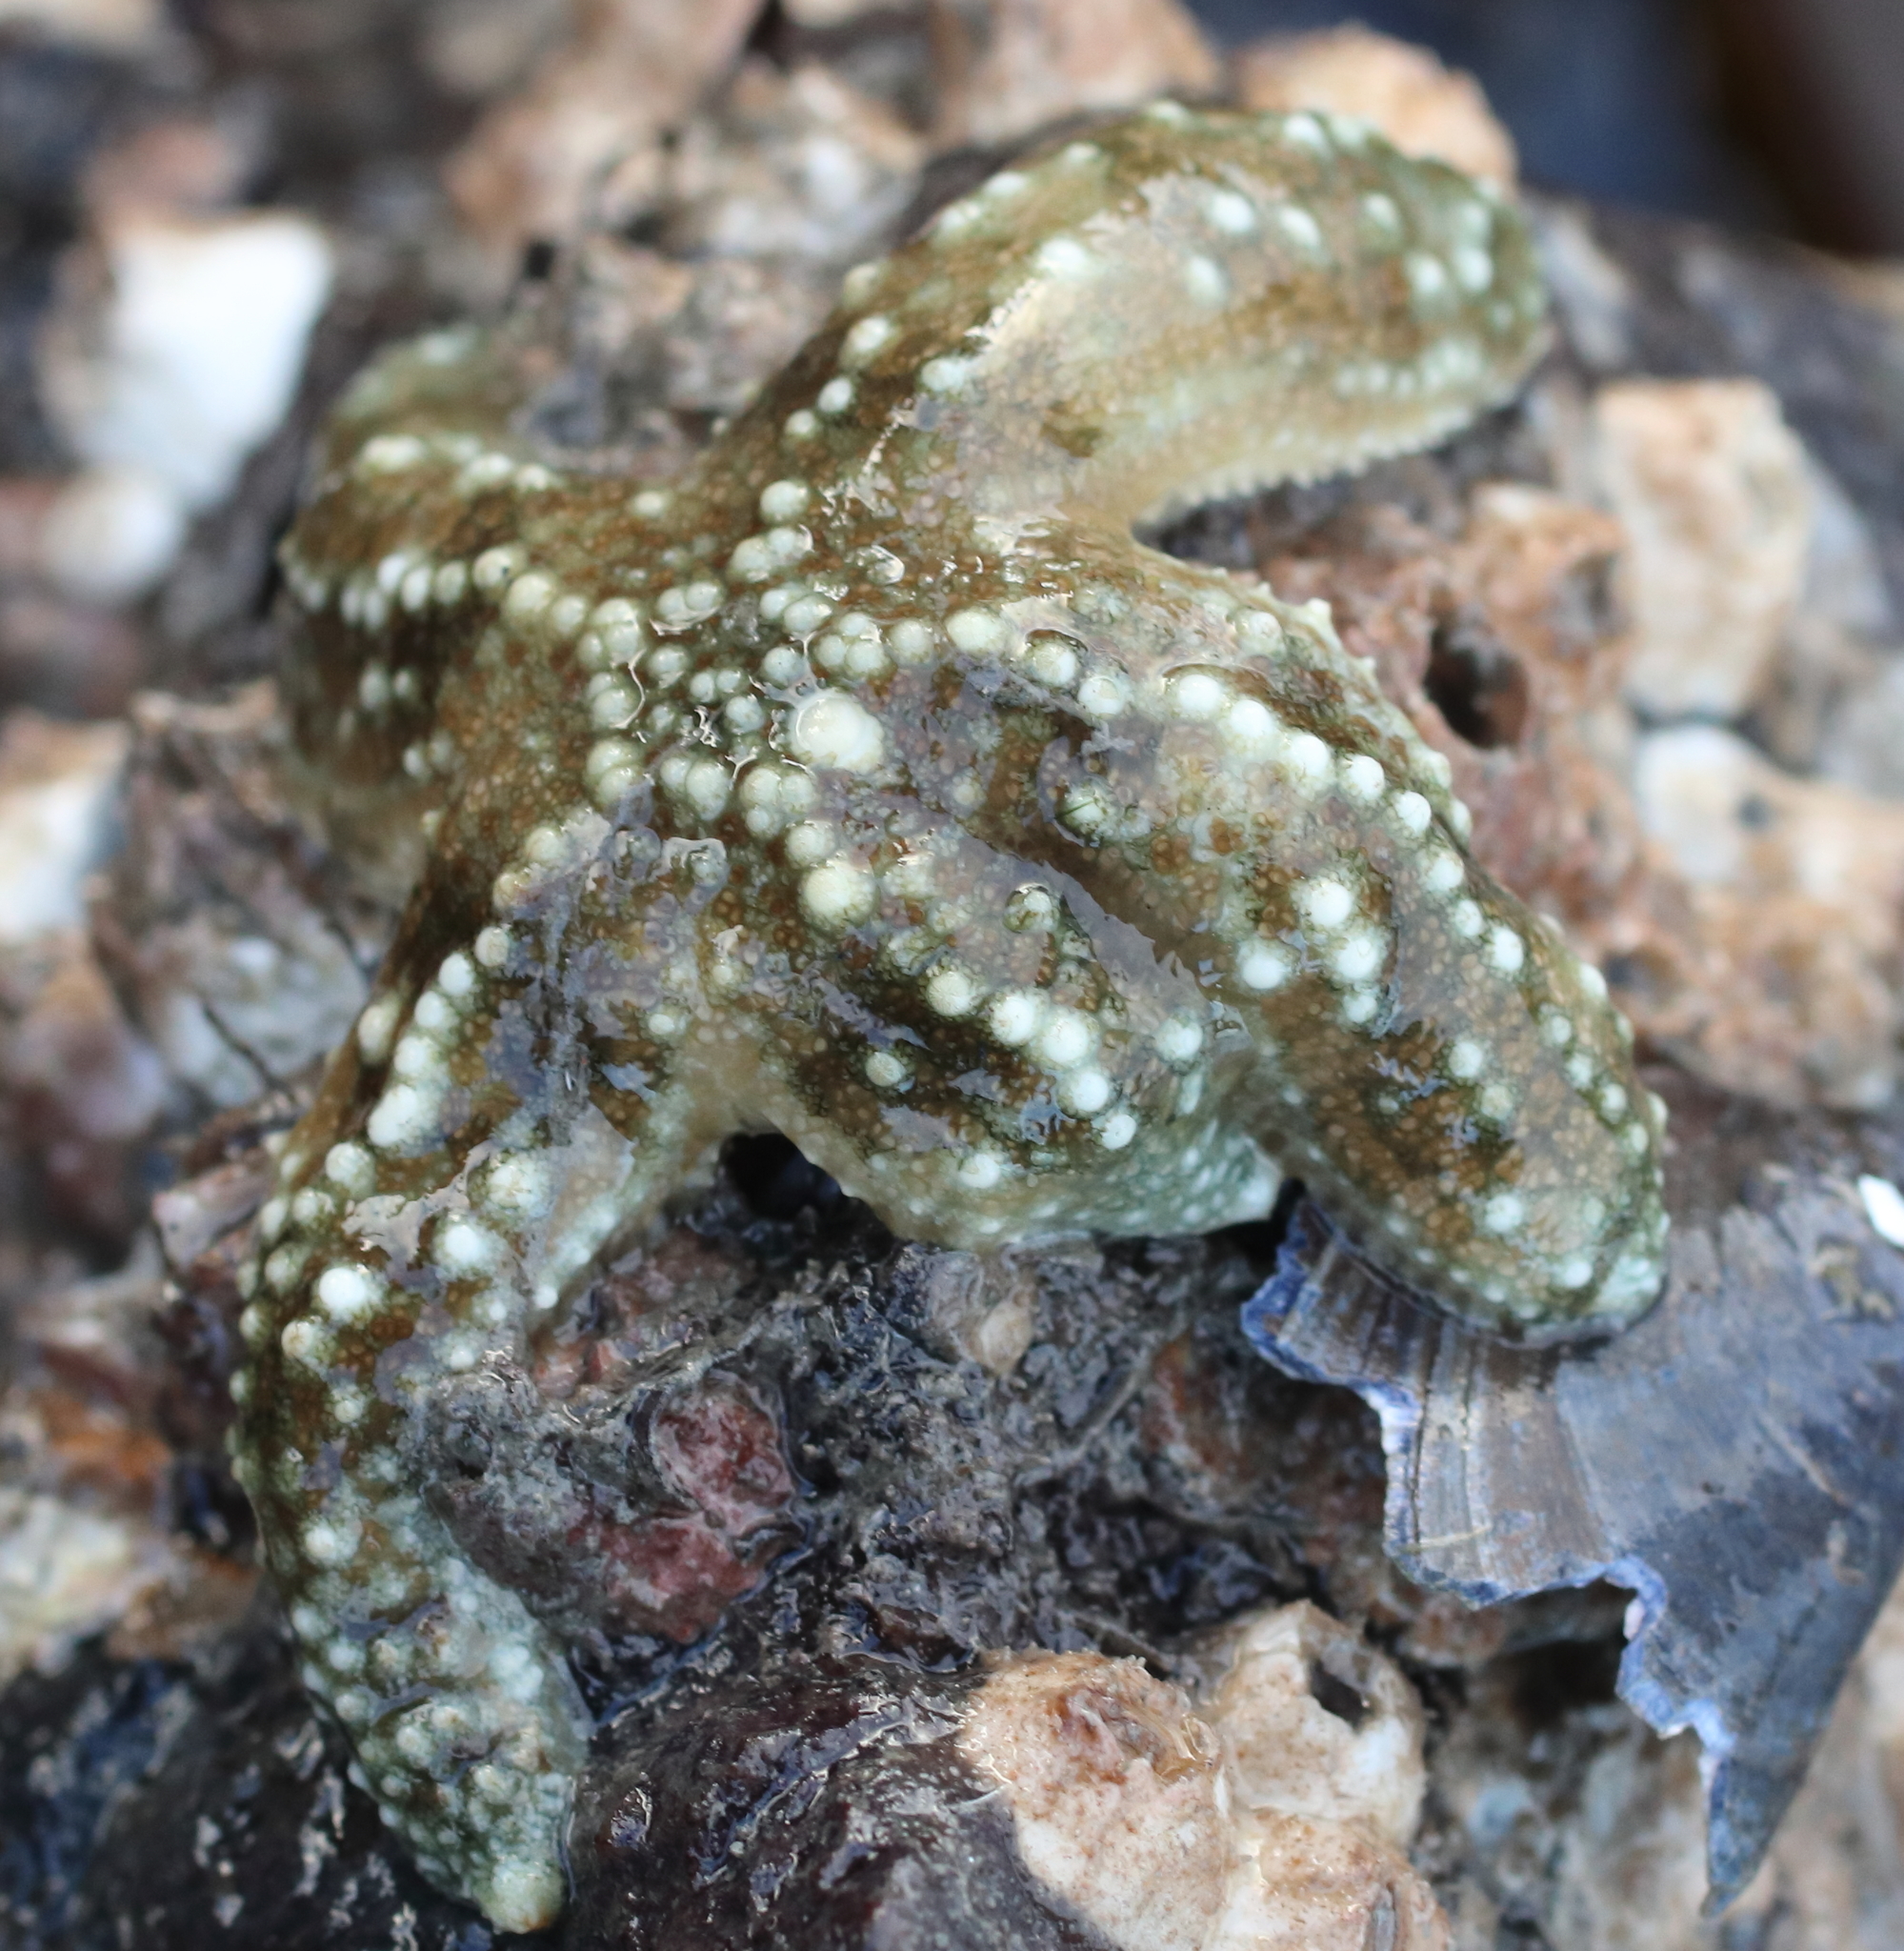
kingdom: Animalia
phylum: Echinodermata
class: Asteroidea
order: Forcipulatida
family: Asteriidae
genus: Evasterias
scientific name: Evasterias troschelii
